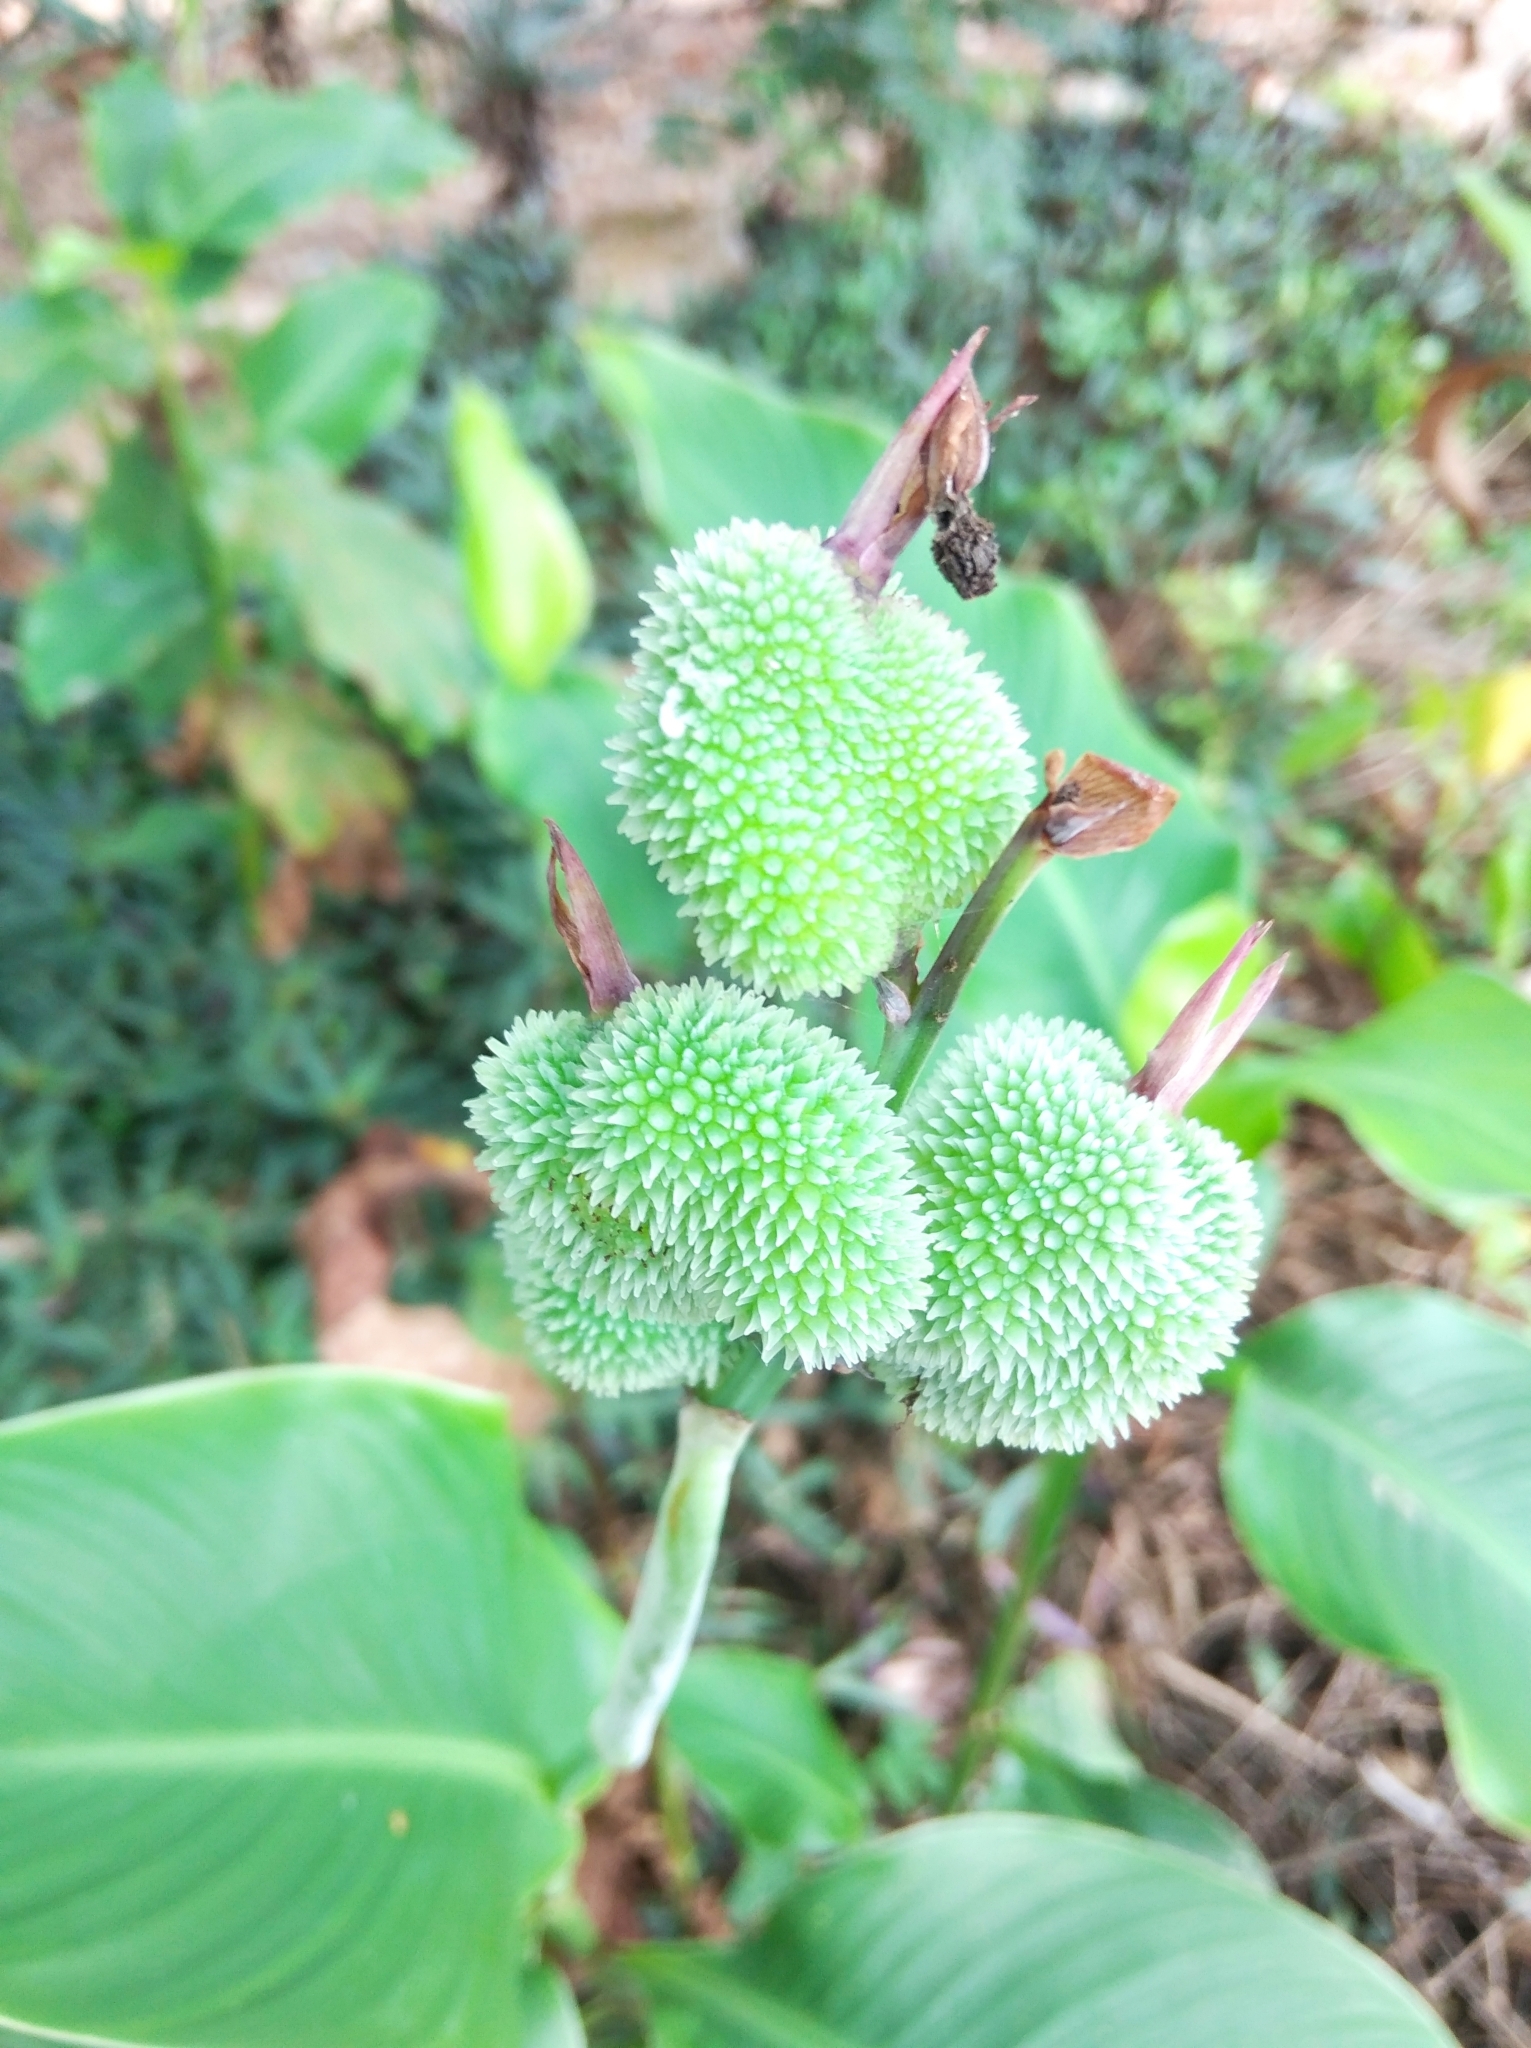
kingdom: Plantae
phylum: Tracheophyta
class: Liliopsida
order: Zingiberales
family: Cannaceae
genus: Canna
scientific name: Canna indica
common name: Indian shot
